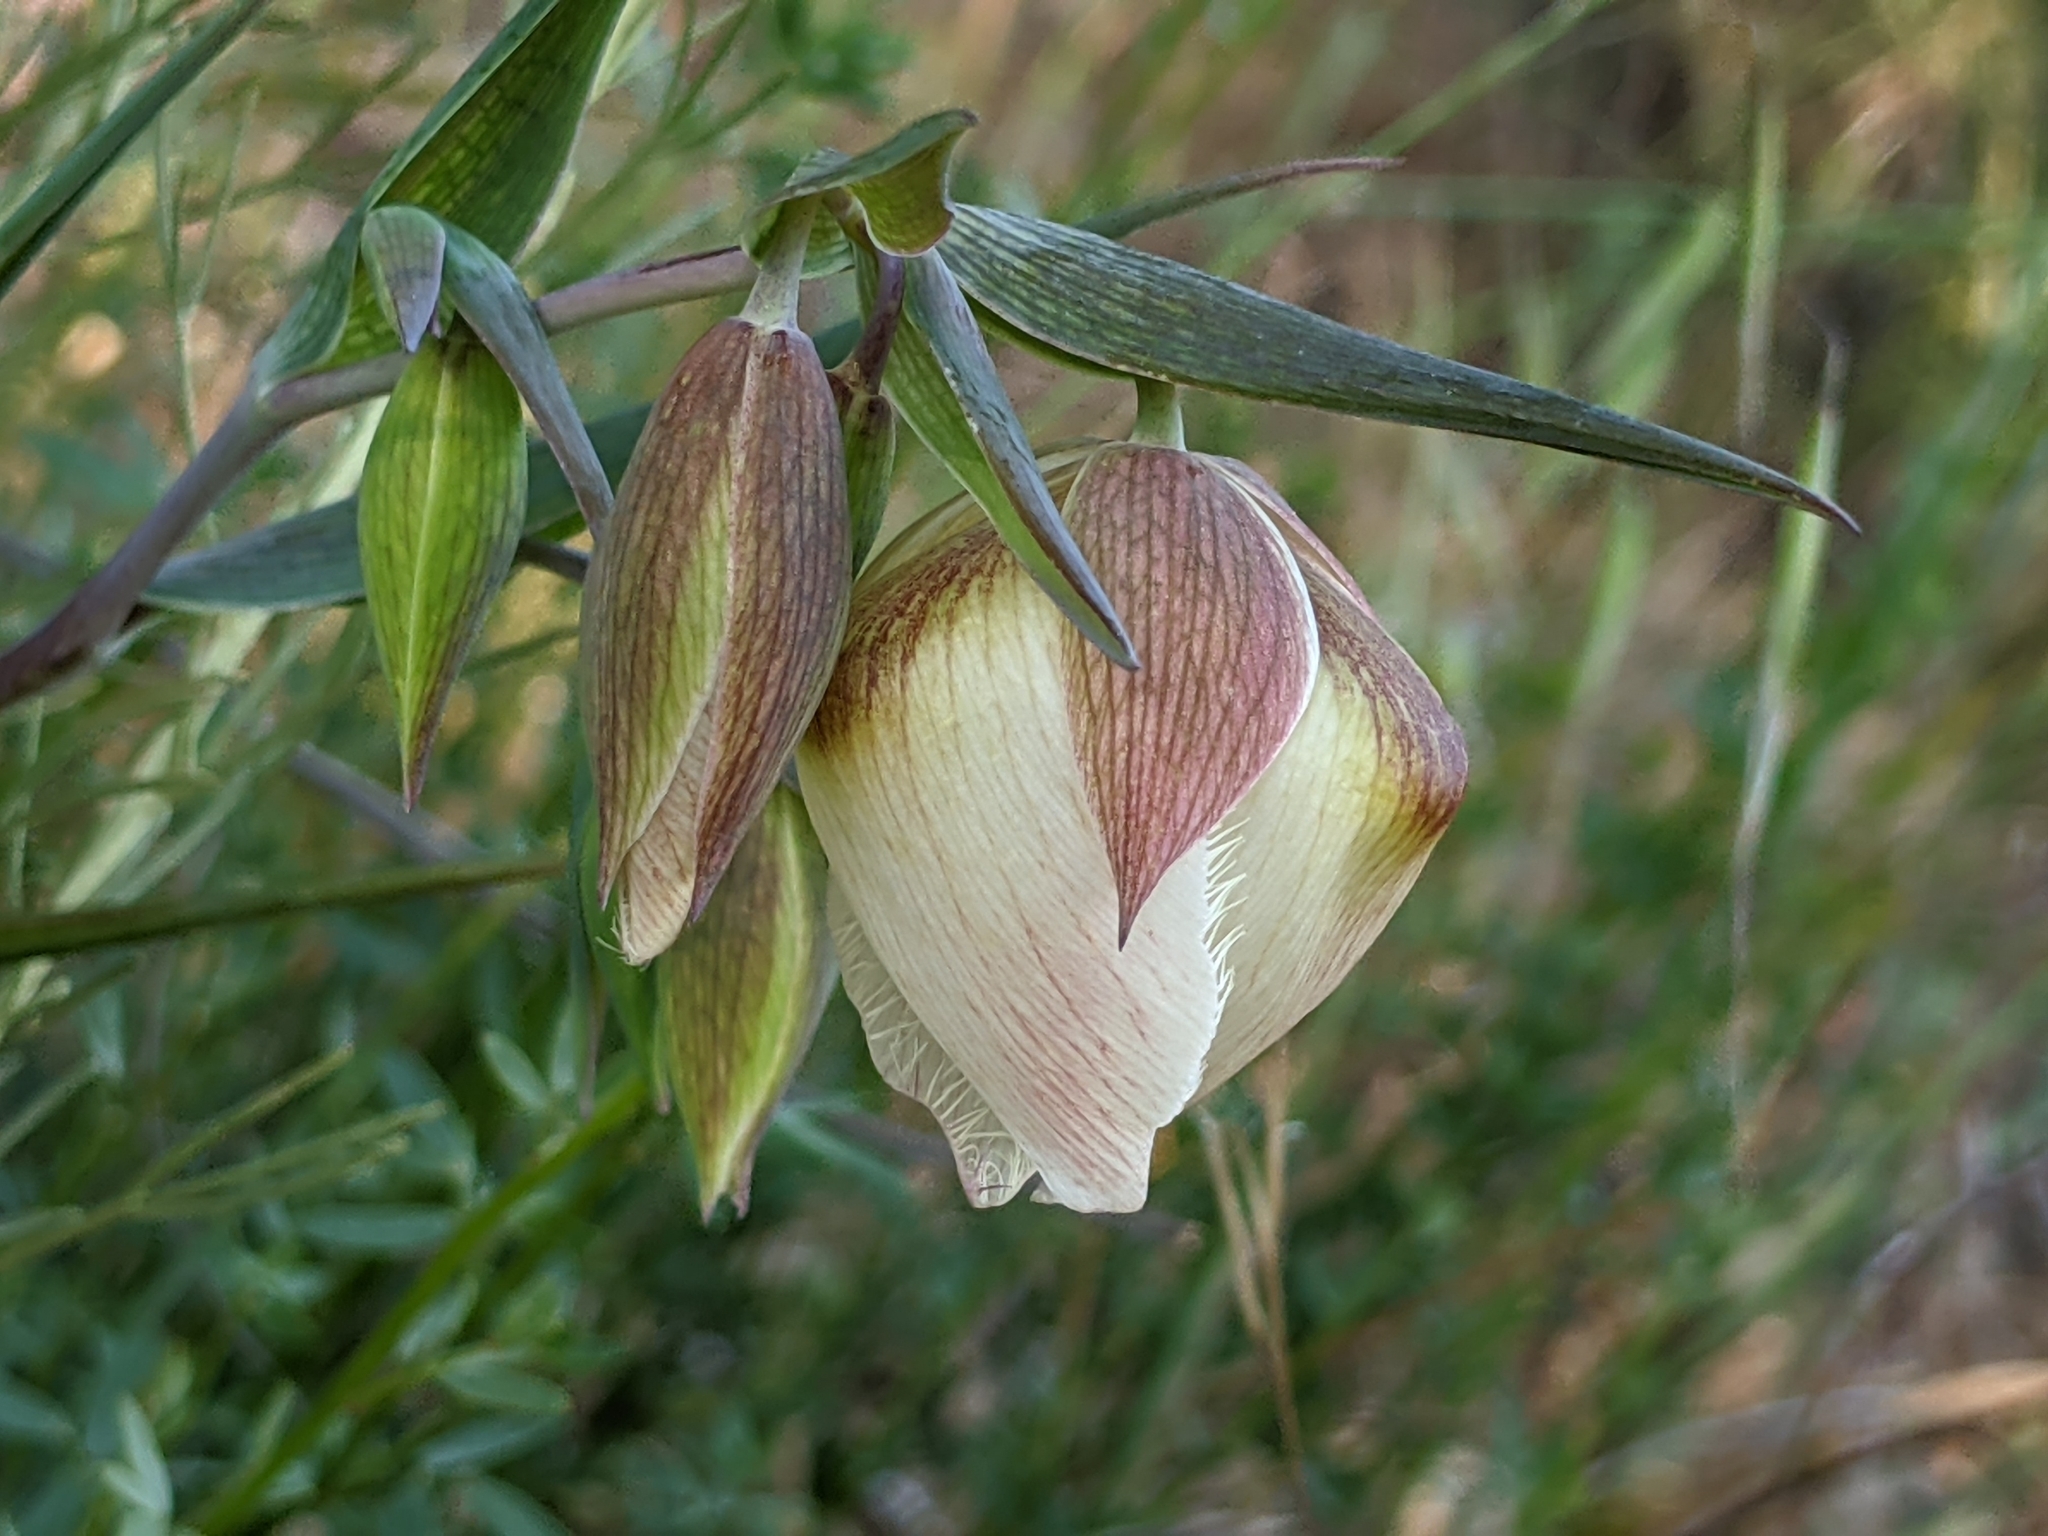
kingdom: Plantae
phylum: Tracheophyta
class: Liliopsida
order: Liliales
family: Liliaceae
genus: Calochortus
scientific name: Calochortus albus
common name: Fairy-lantern
